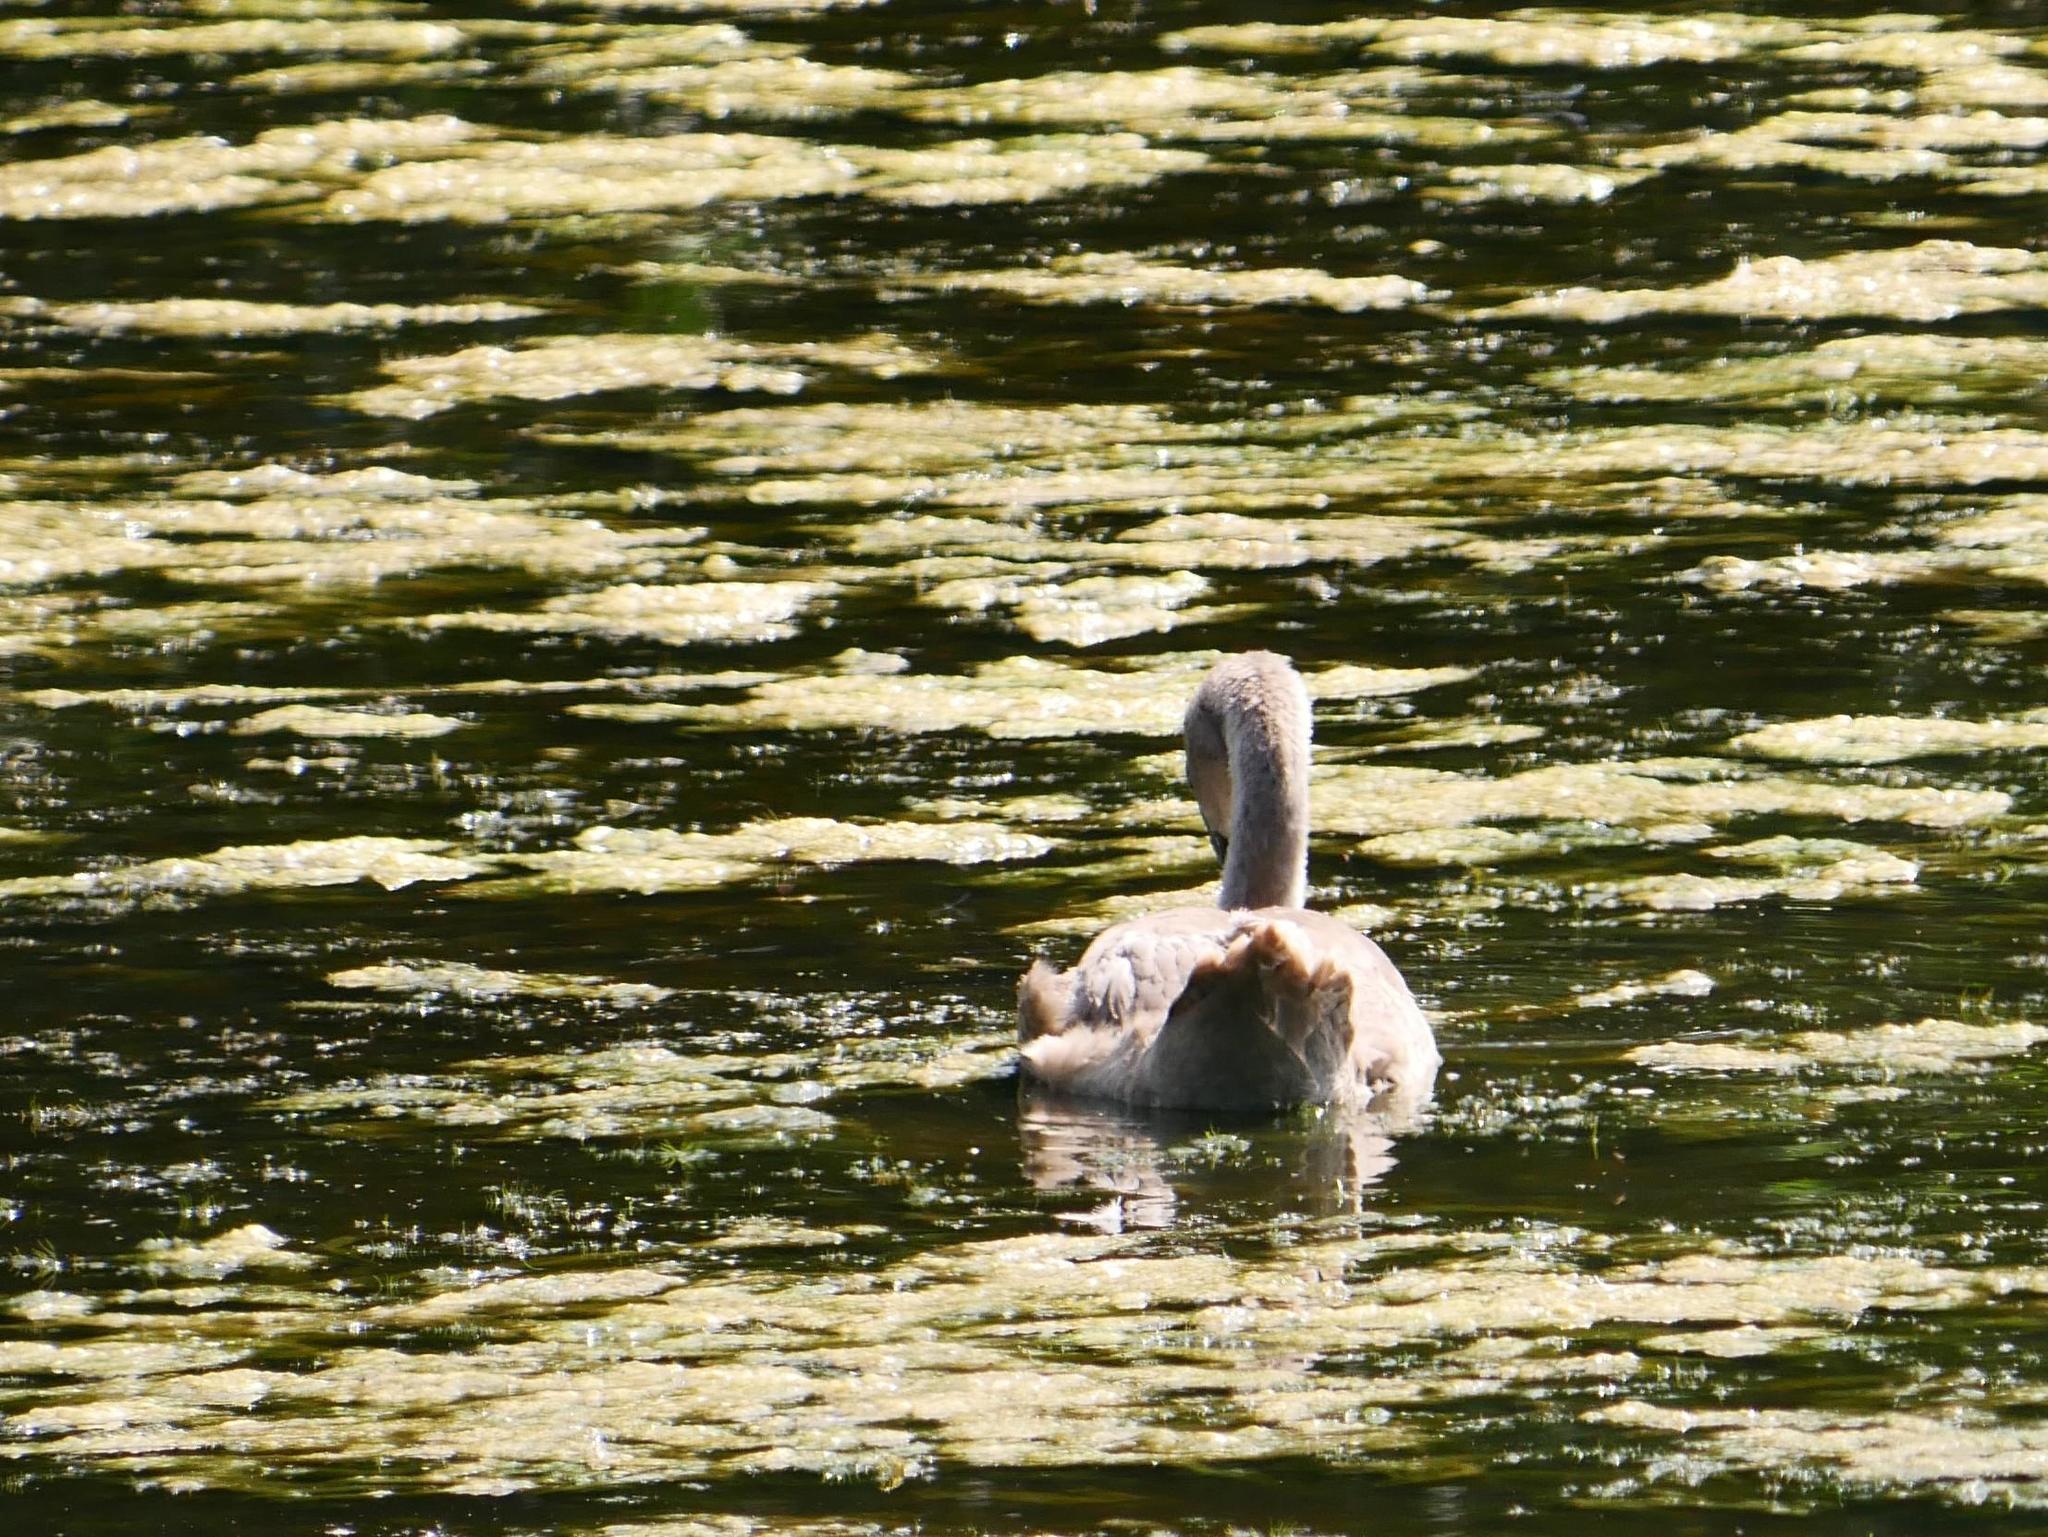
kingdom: Animalia
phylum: Chordata
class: Aves
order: Anseriformes
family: Anatidae
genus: Cygnus
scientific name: Cygnus olor
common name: Mute swan
